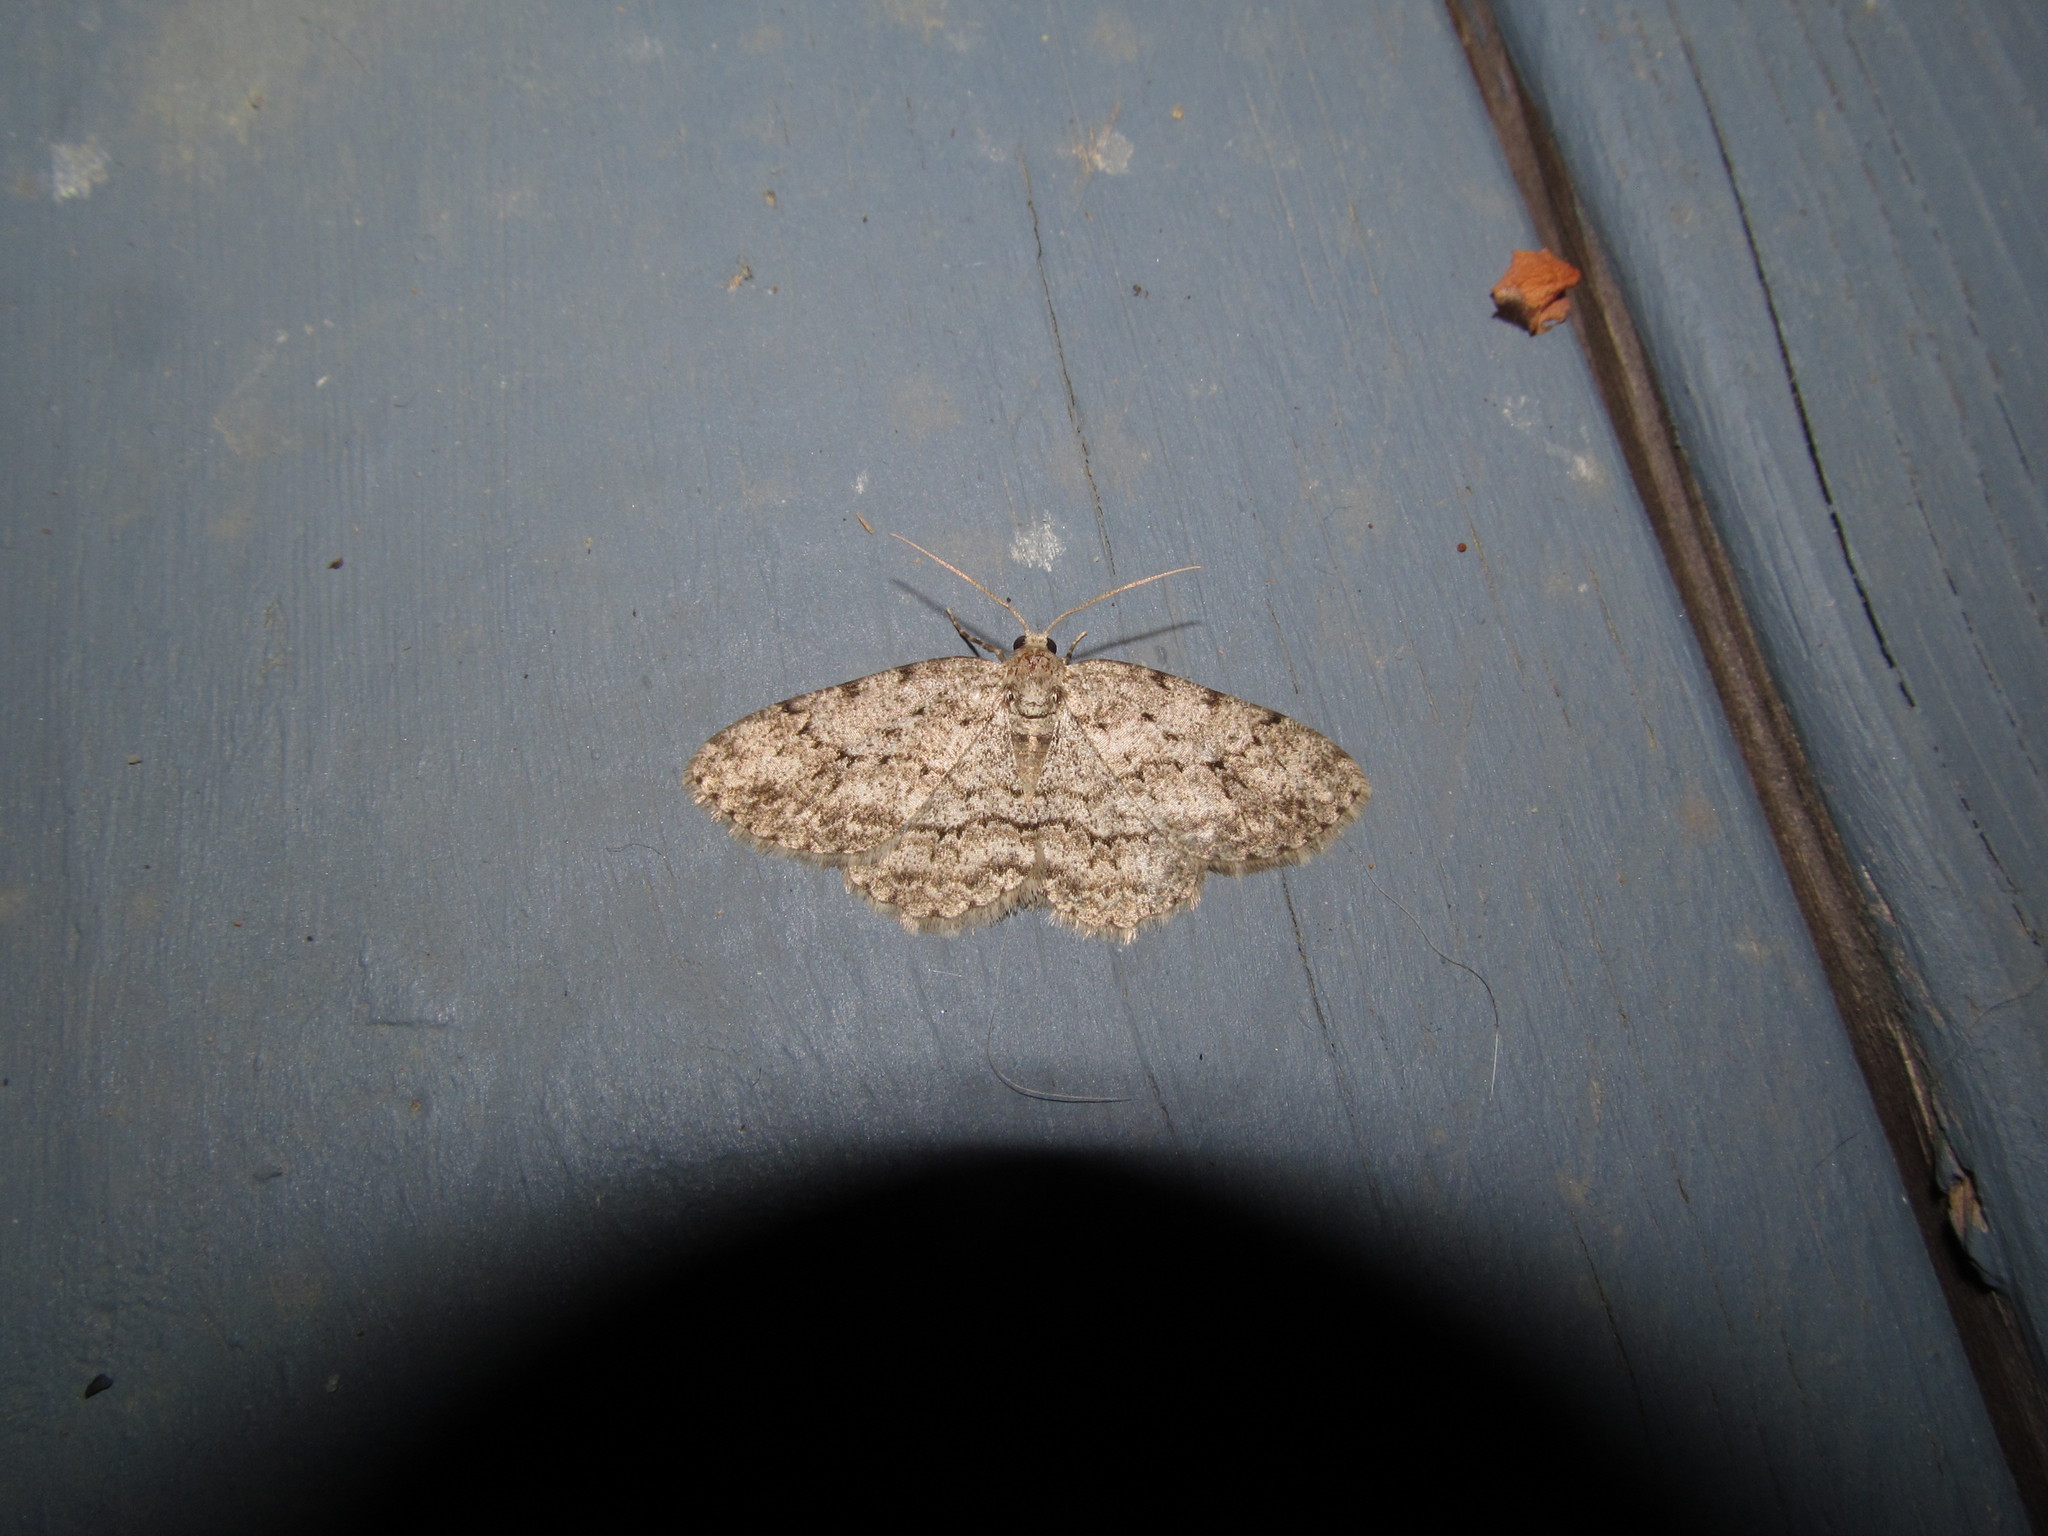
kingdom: Animalia
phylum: Arthropoda
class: Insecta
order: Lepidoptera
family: Geometridae
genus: Ectropis
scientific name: Ectropis crepuscularia
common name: Engrailed
